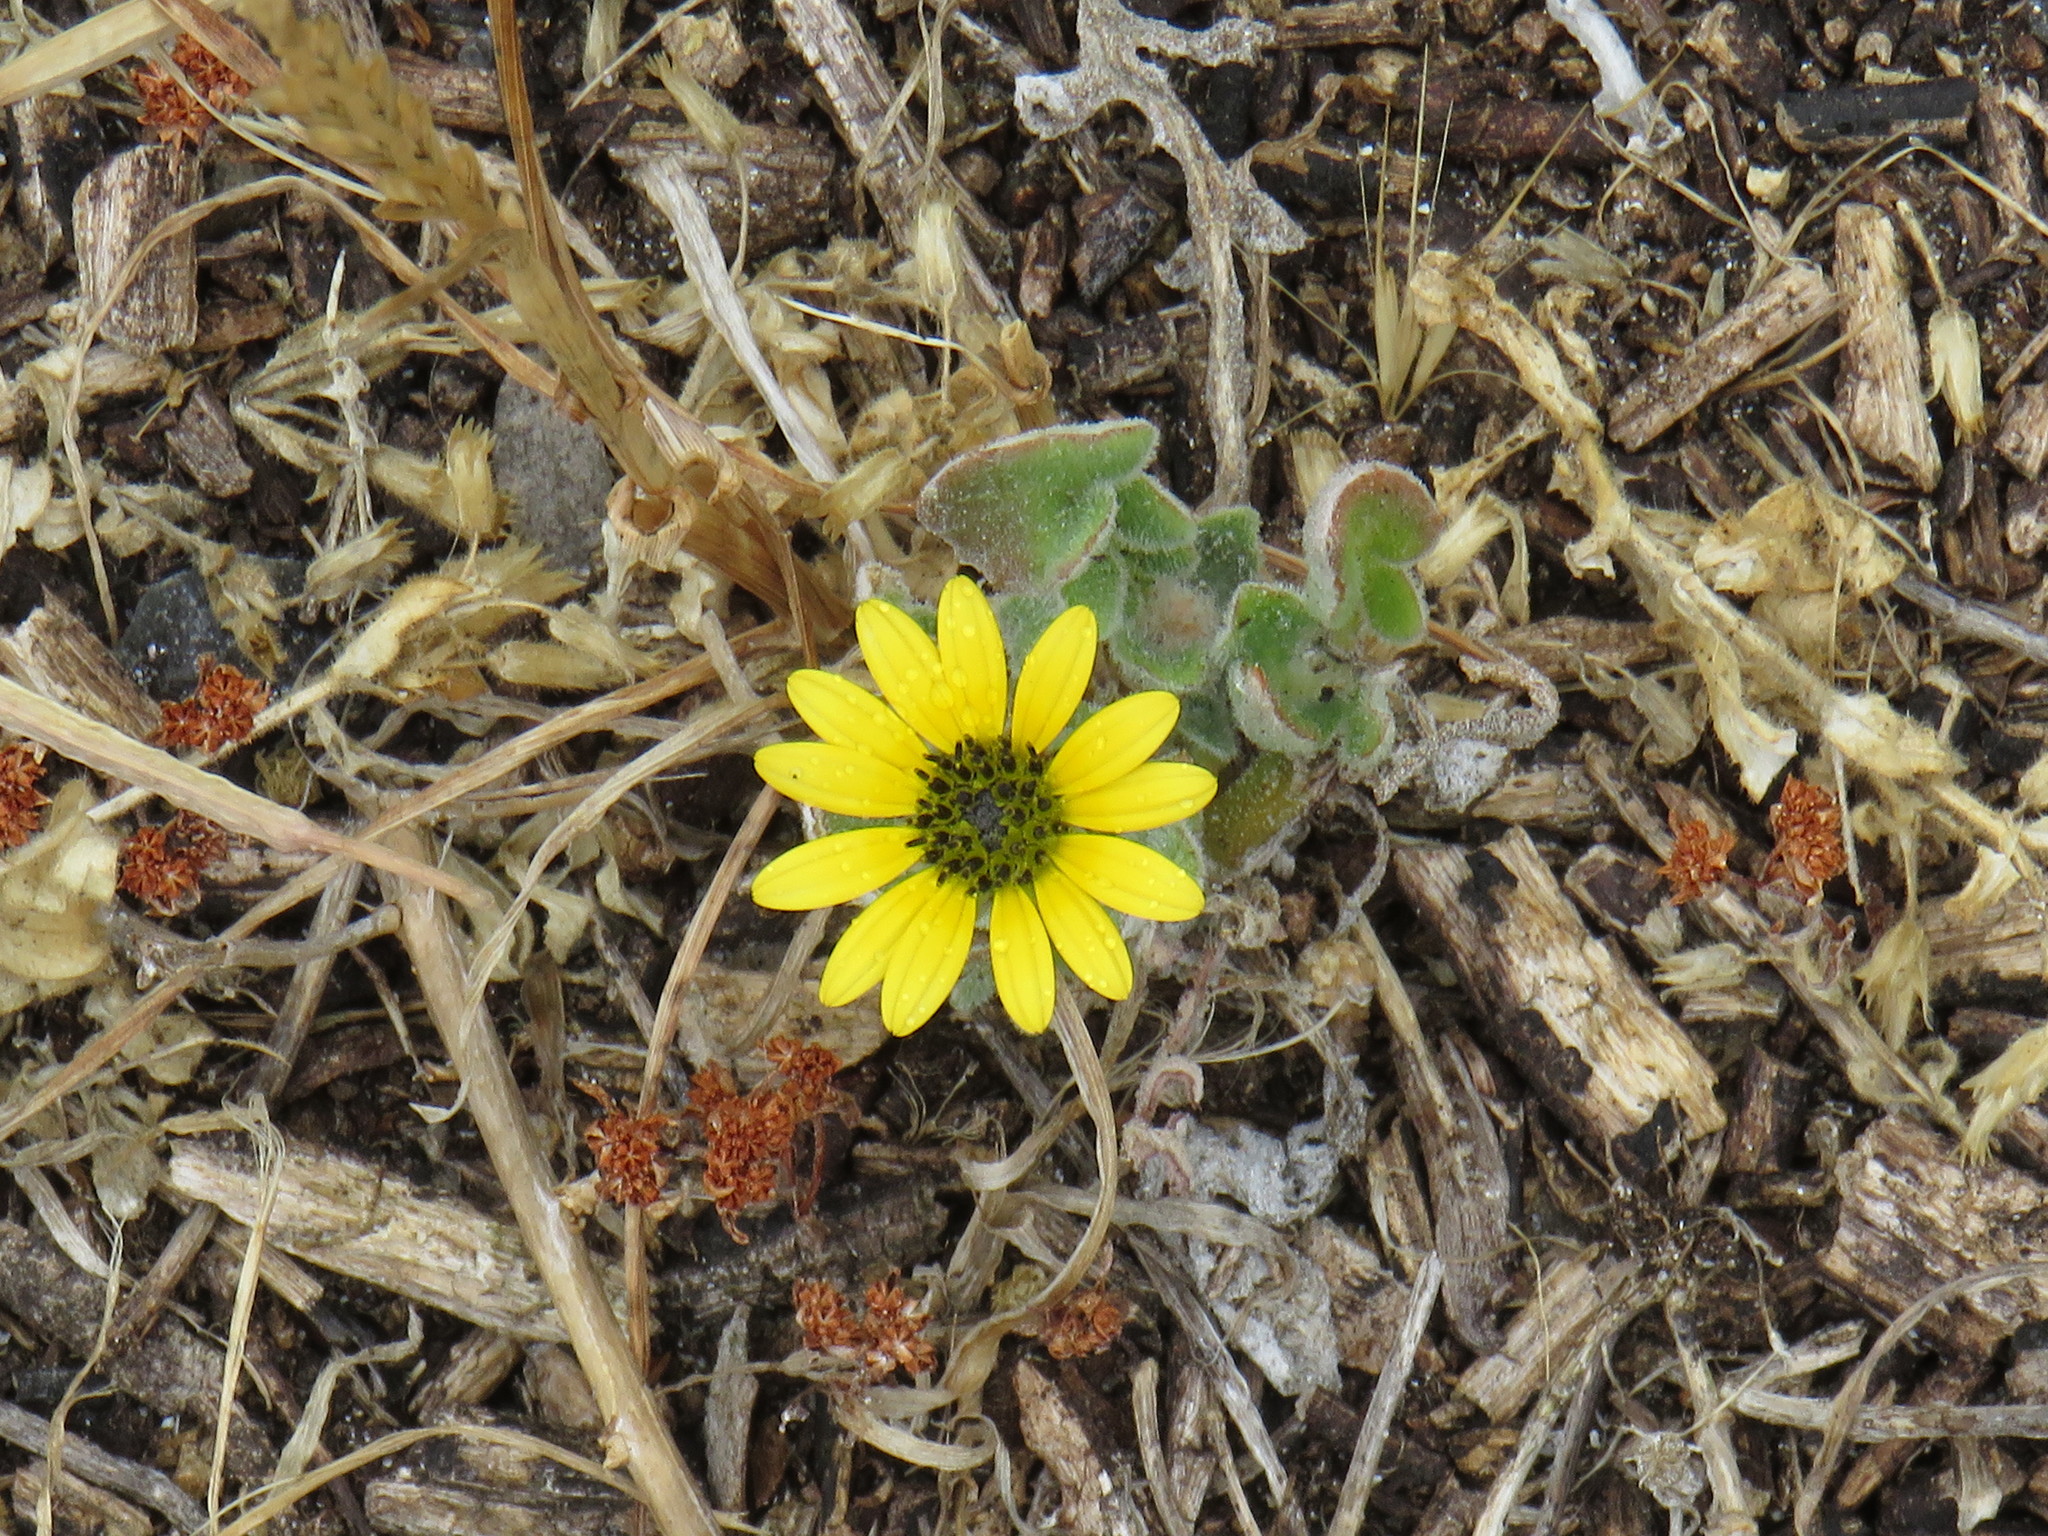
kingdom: Plantae
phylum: Tracheophyta
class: Magnoliopsida
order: Asterales
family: Asteraceae
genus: Arctotheca
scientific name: Arctotheca calendula
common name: Capeweed
